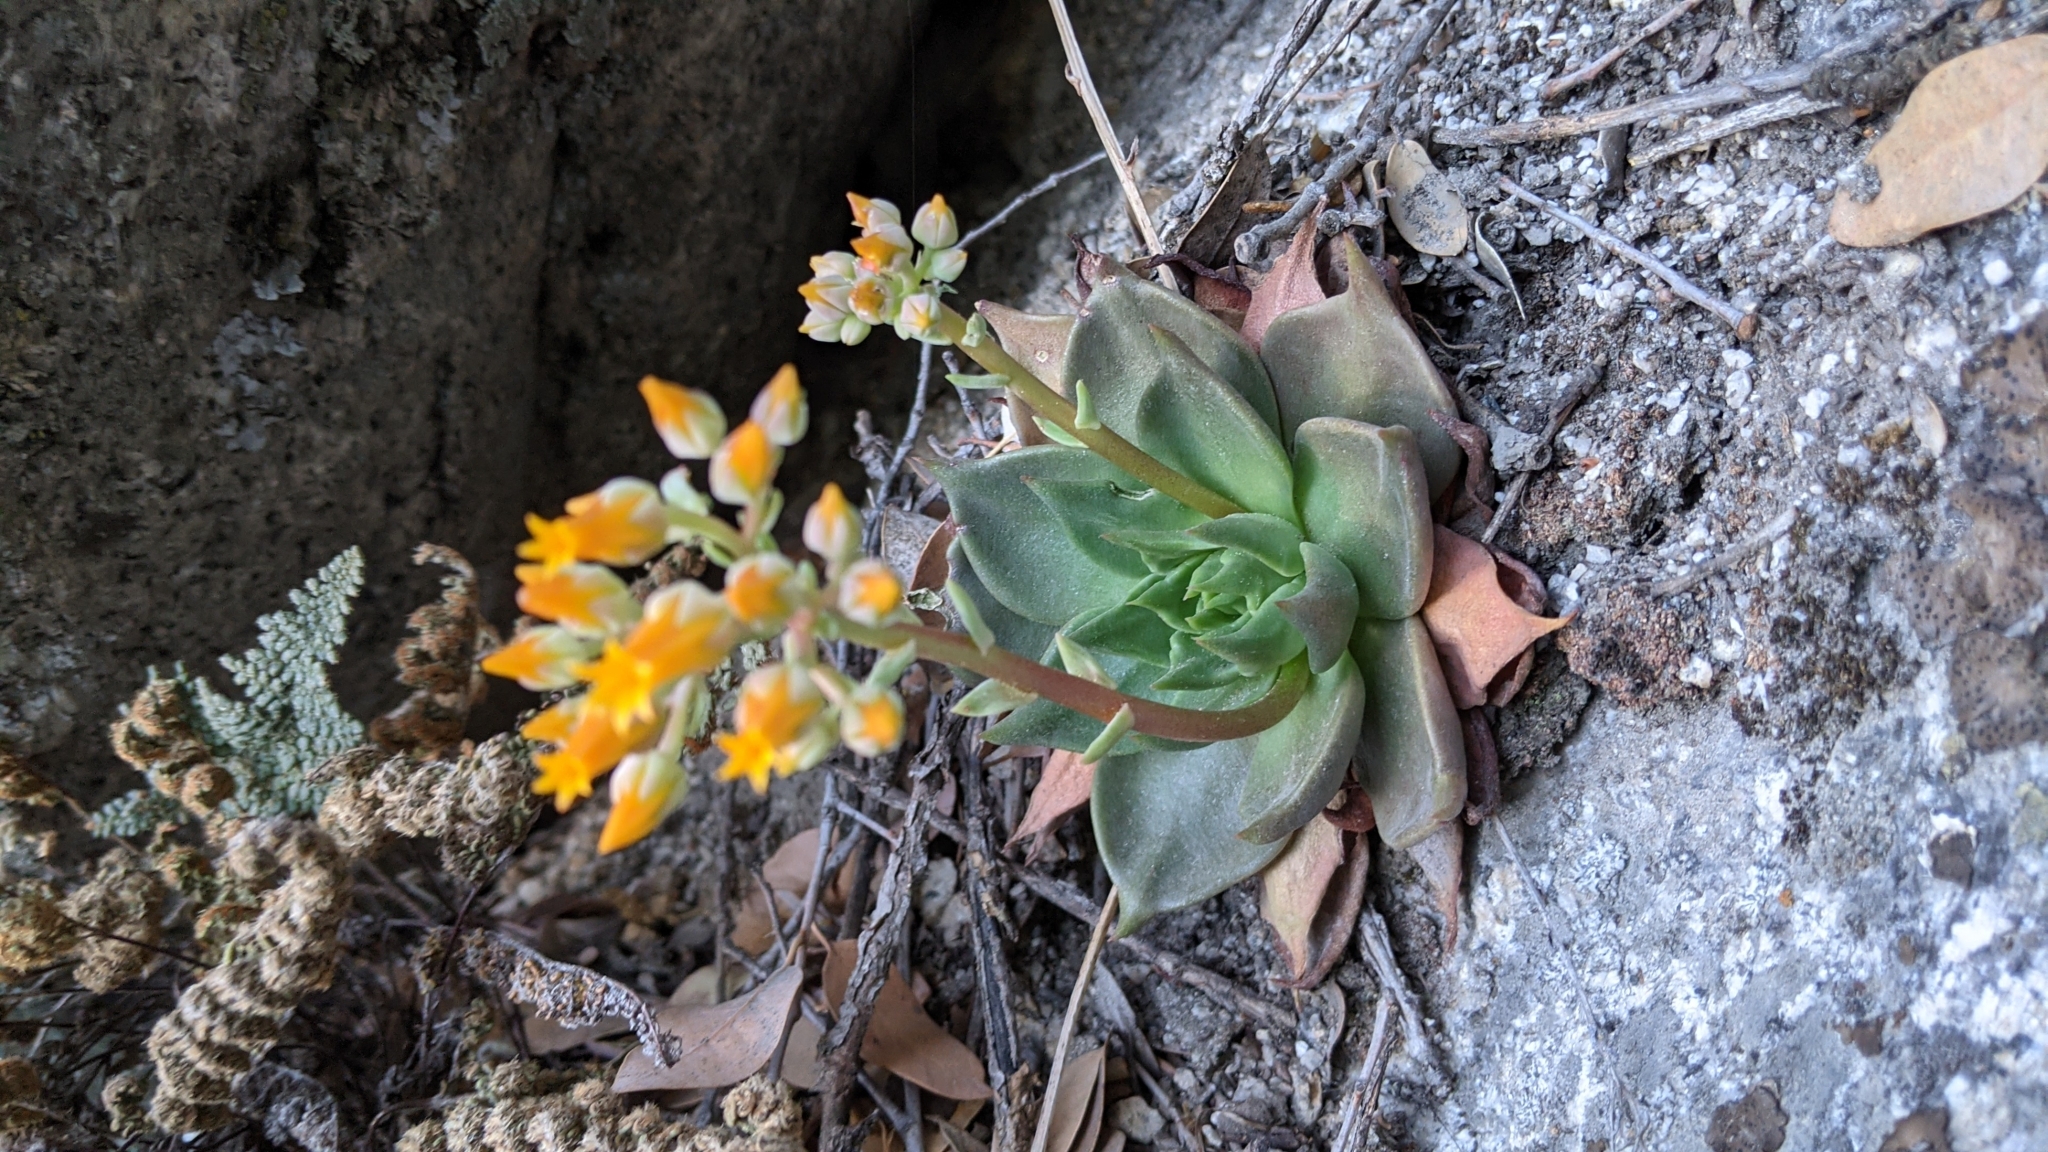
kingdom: Plantae
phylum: Tracheophyta
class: Magnoliopsida
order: Saxifragales
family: Crassulaceae
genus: Dudleya
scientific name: Dudleya cymosa
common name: Canyon dudleya
